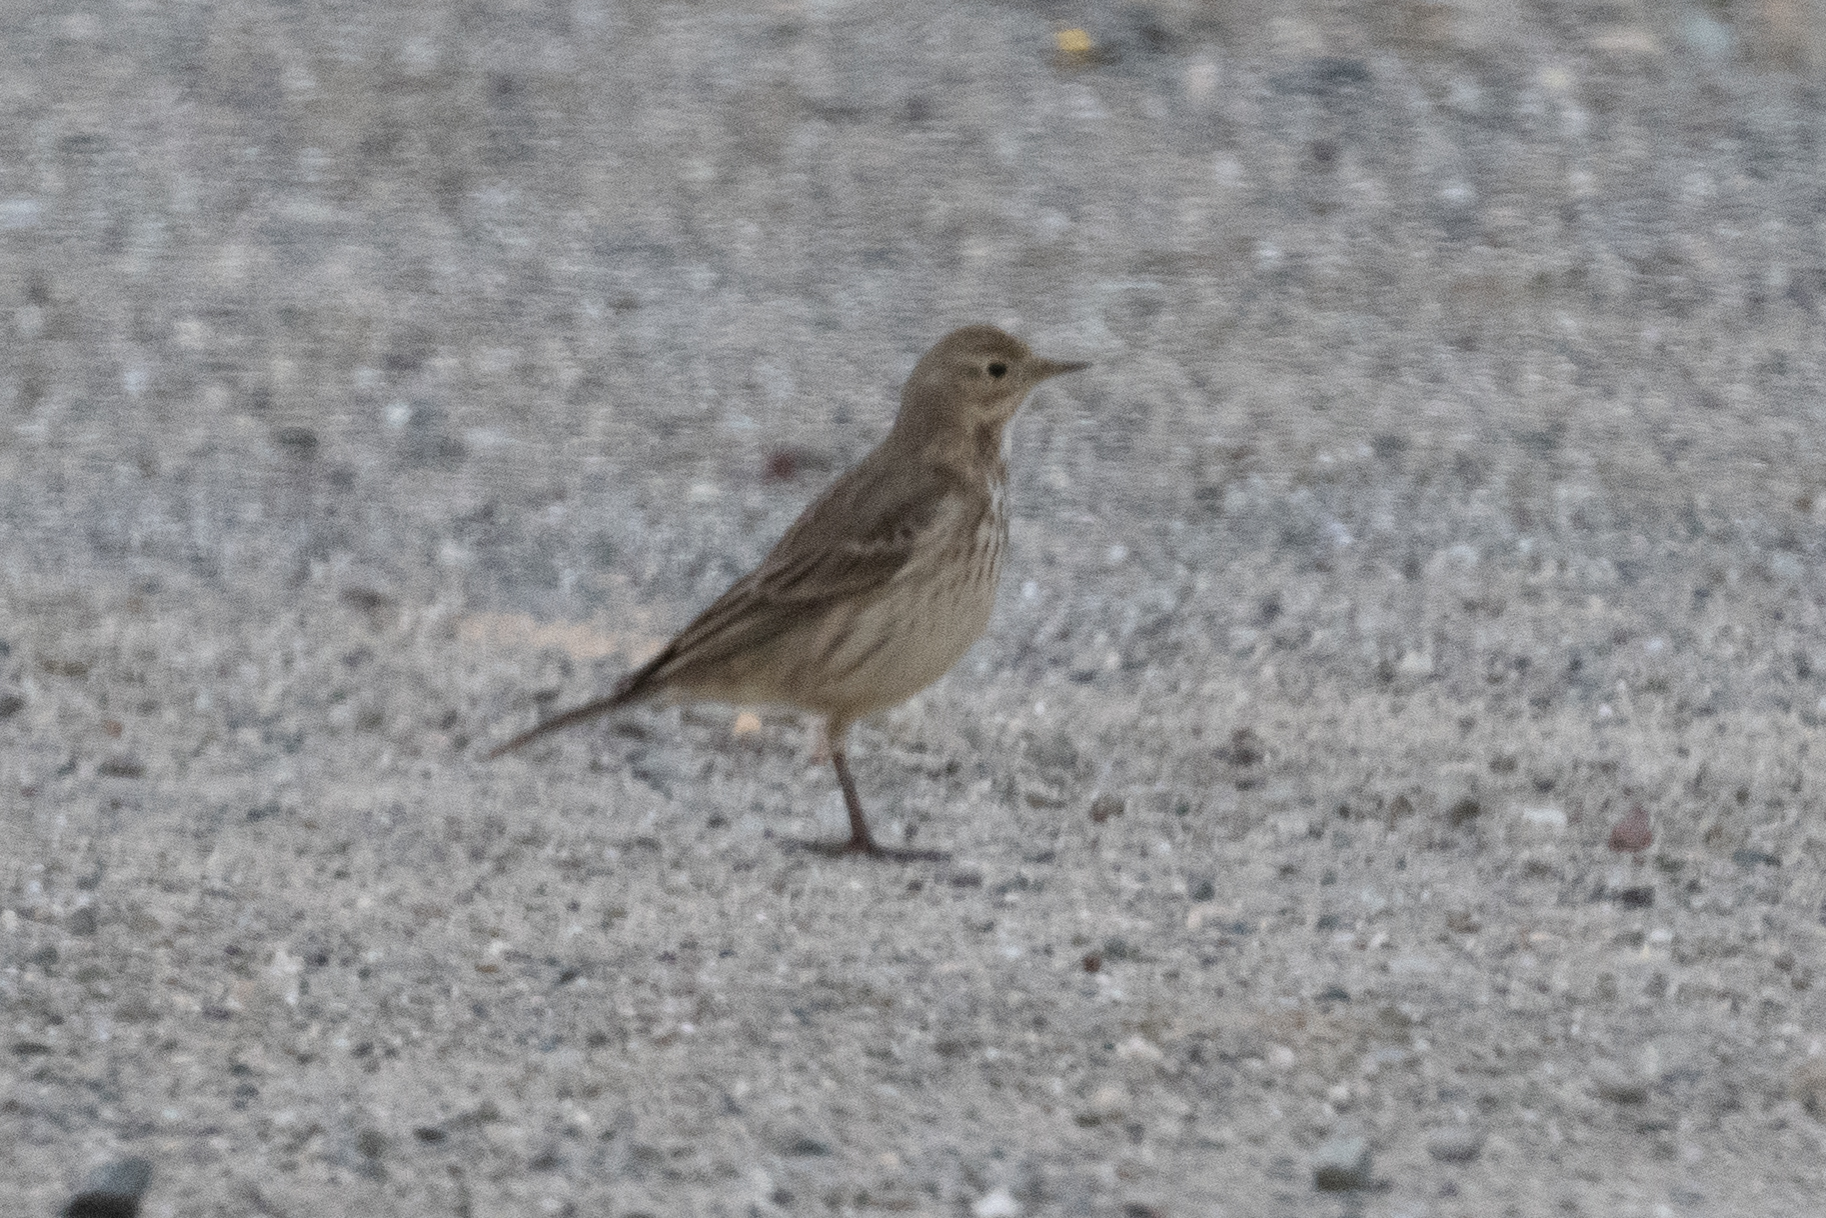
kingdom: Animalia
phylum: Chordata
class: Aves
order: Passeriformes
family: Motacillidae
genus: Anthus
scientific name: Anthus rubescens
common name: Buff-bellied pipit
